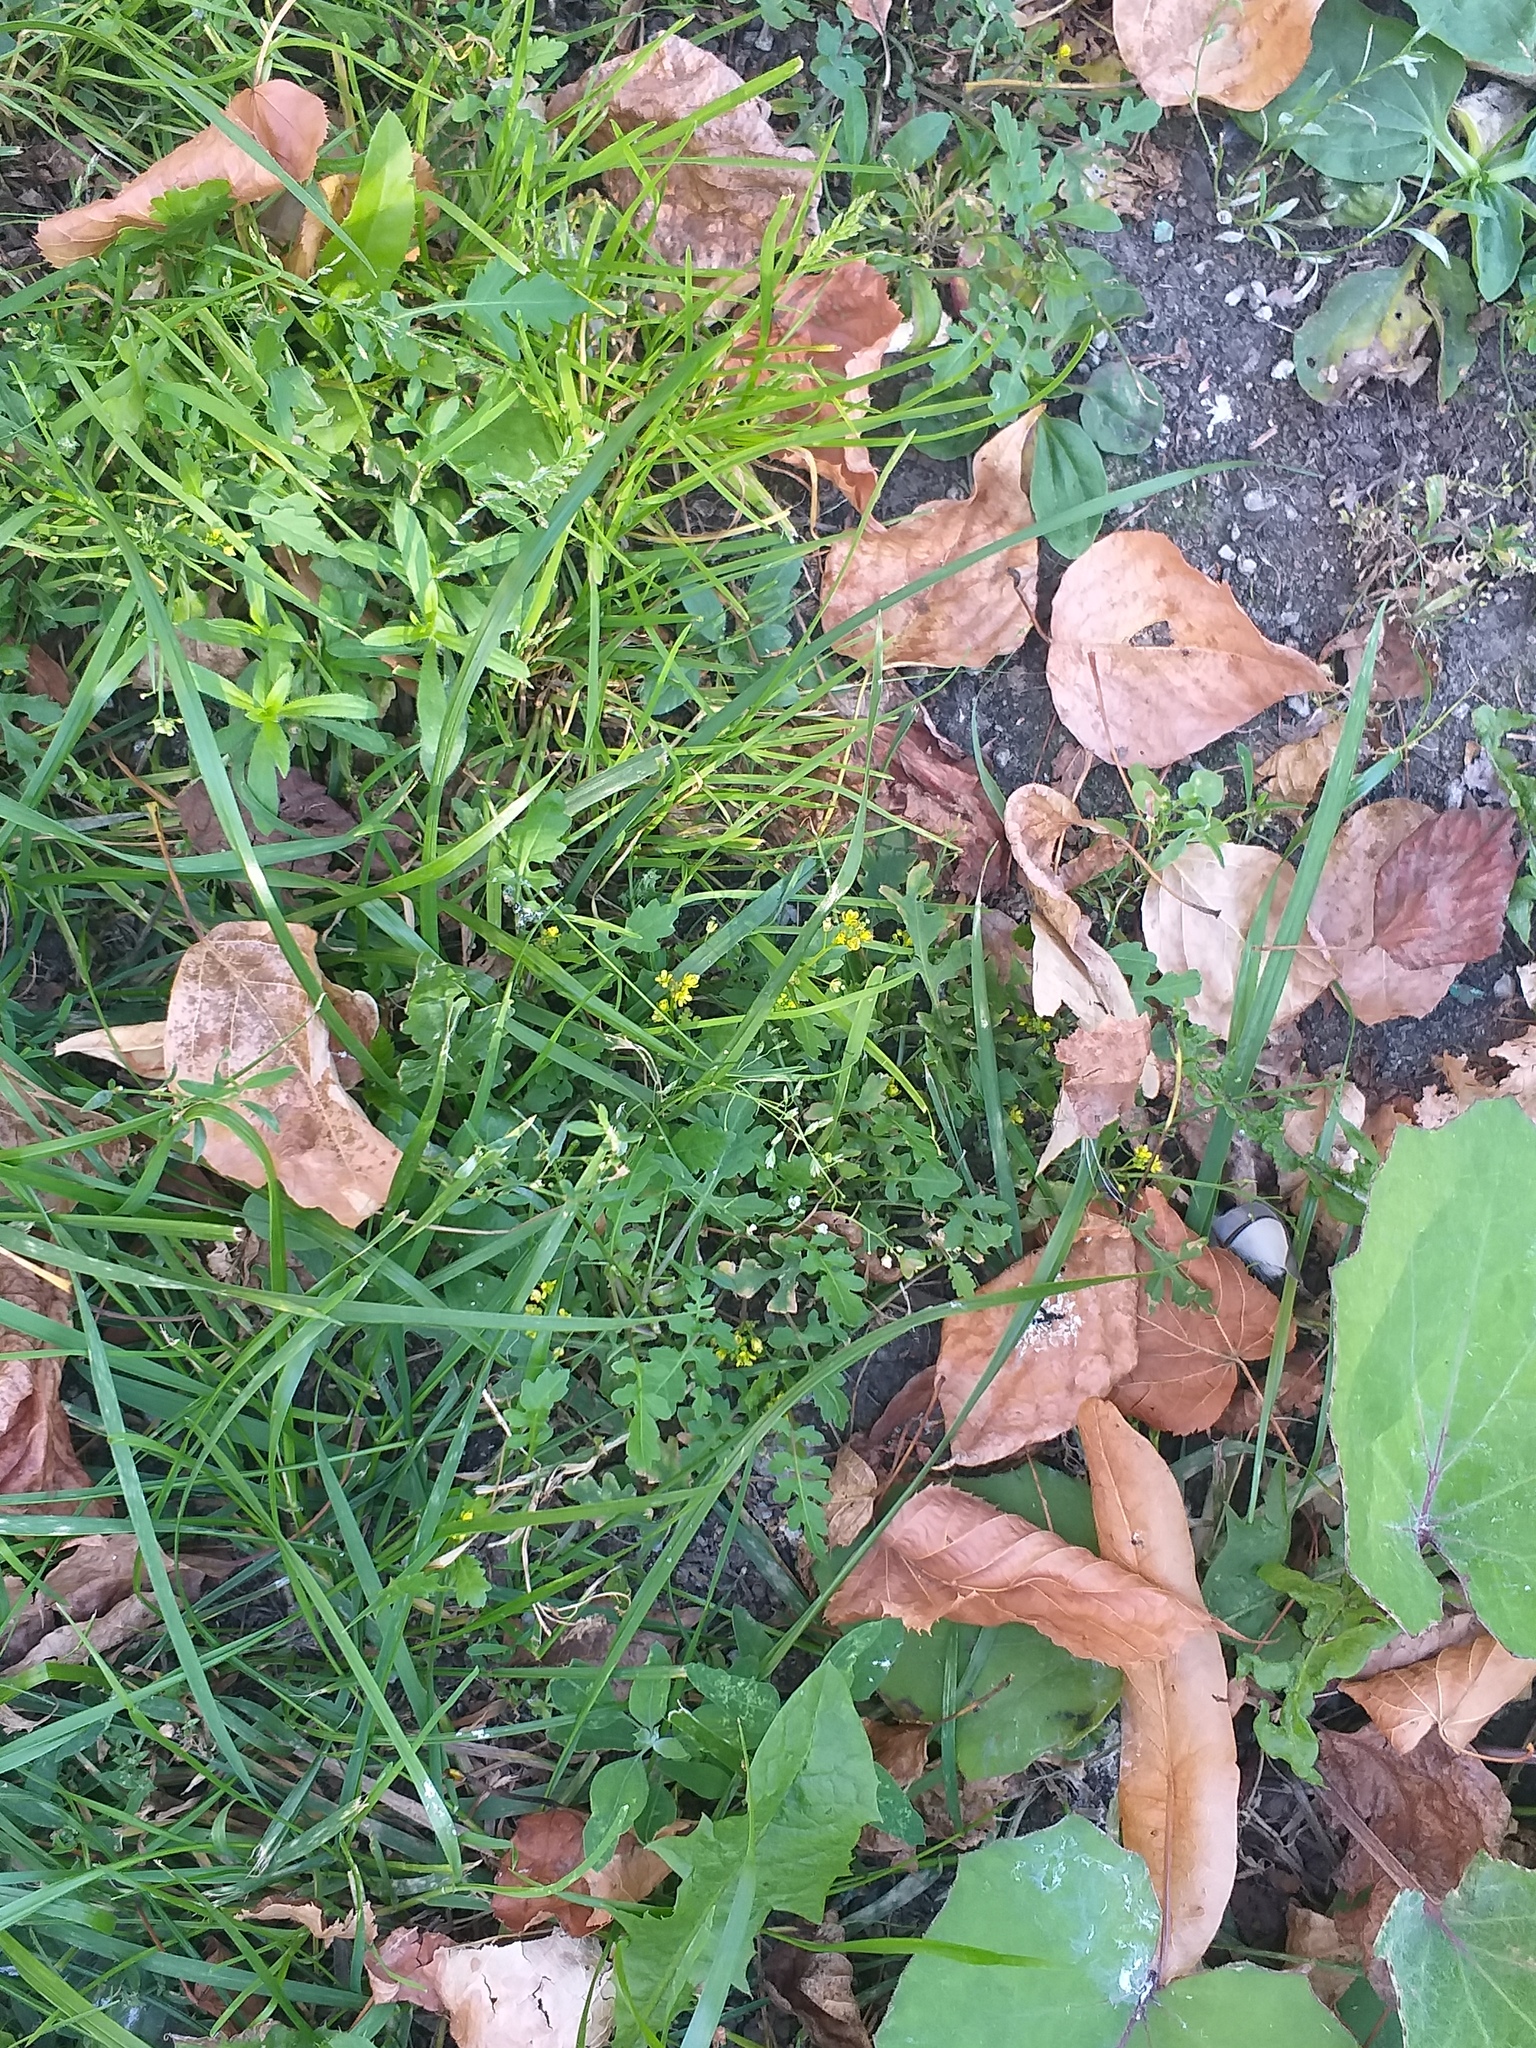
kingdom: Plantae
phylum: Tracheophyta
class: Magnoliopsida
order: Brassicales
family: Brassicaceae
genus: Rorippa
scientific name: Rorippa palustris
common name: Marsh yellow-cress
